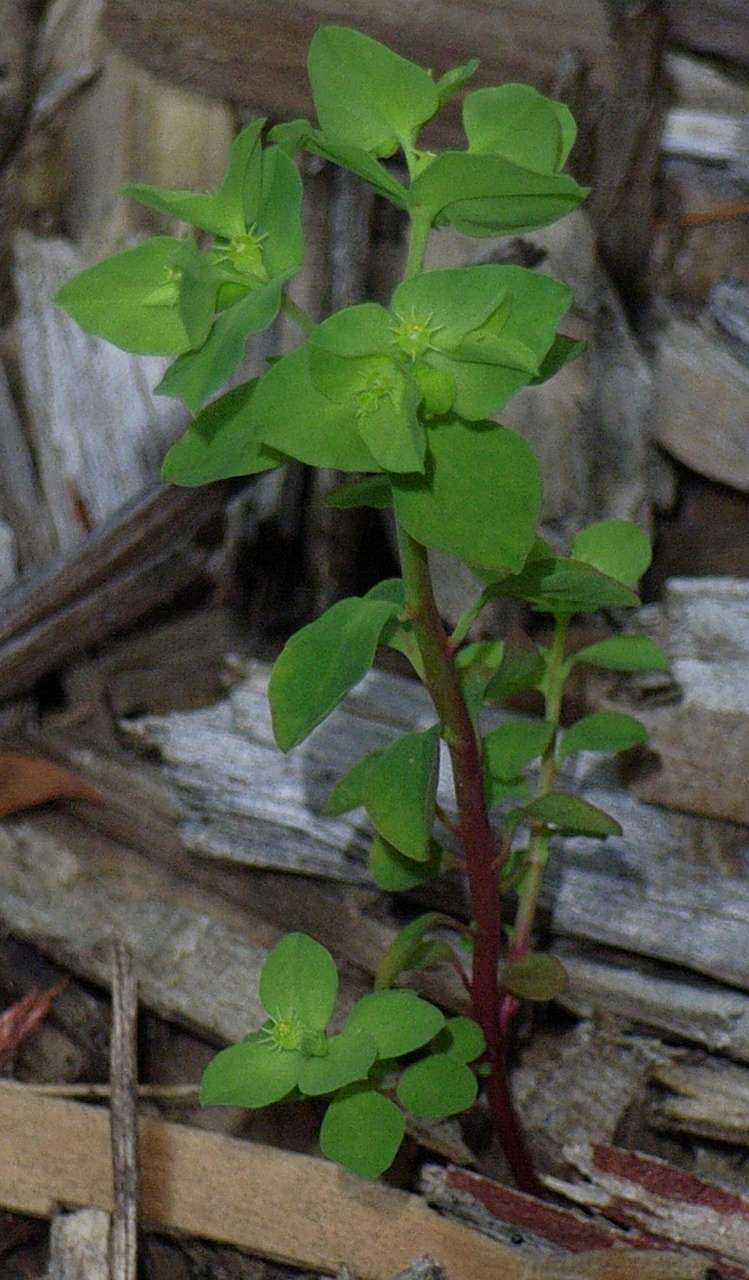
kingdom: Plantae
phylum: Tracheophyta
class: Magnoliopsida
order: Malpighiales
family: Euphorbiaceae
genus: Euphorbia
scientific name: Euphorbia peplus
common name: Petty spurge
